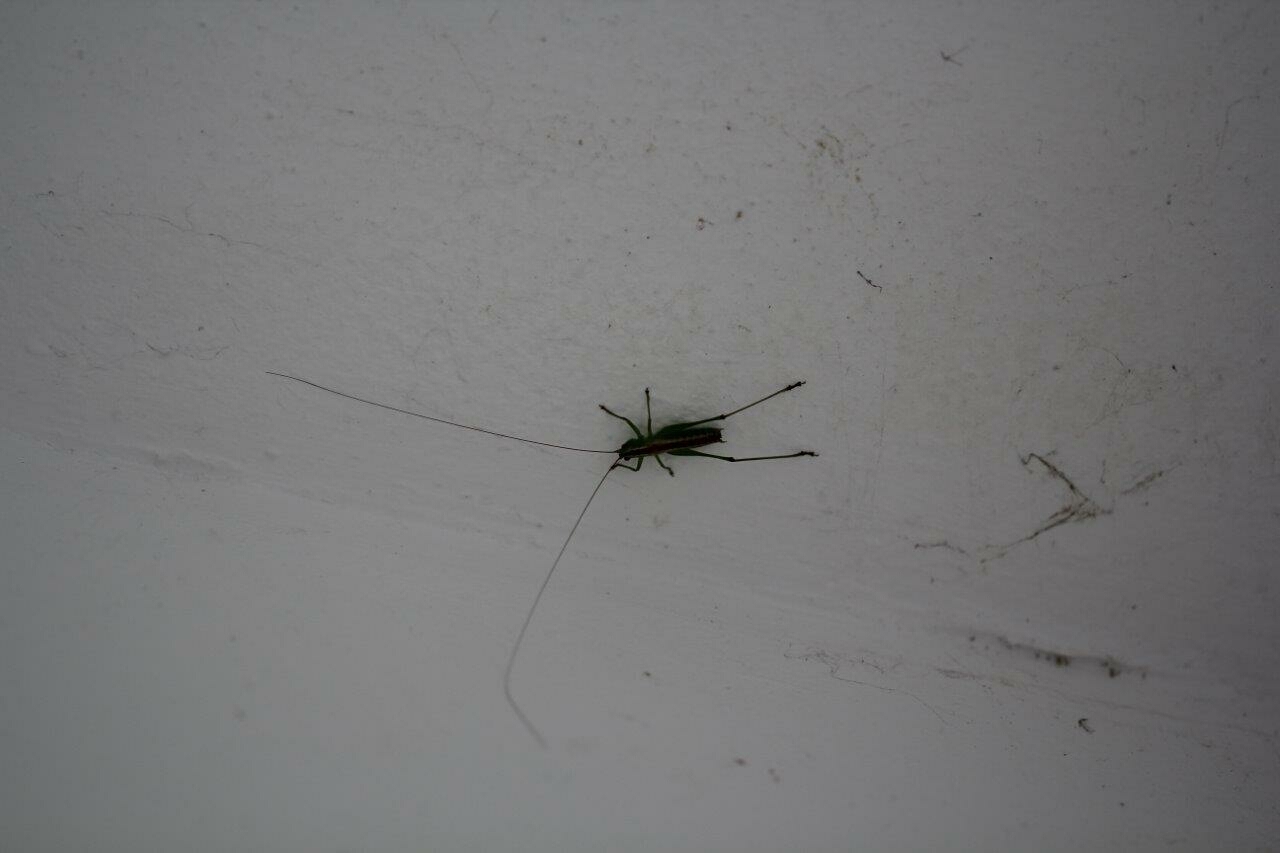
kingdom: Animalia
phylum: Arthropoda
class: Insecta
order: Orthoptera
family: Tettigoniidae
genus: Conocephalus
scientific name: Conocephalus hastatus
